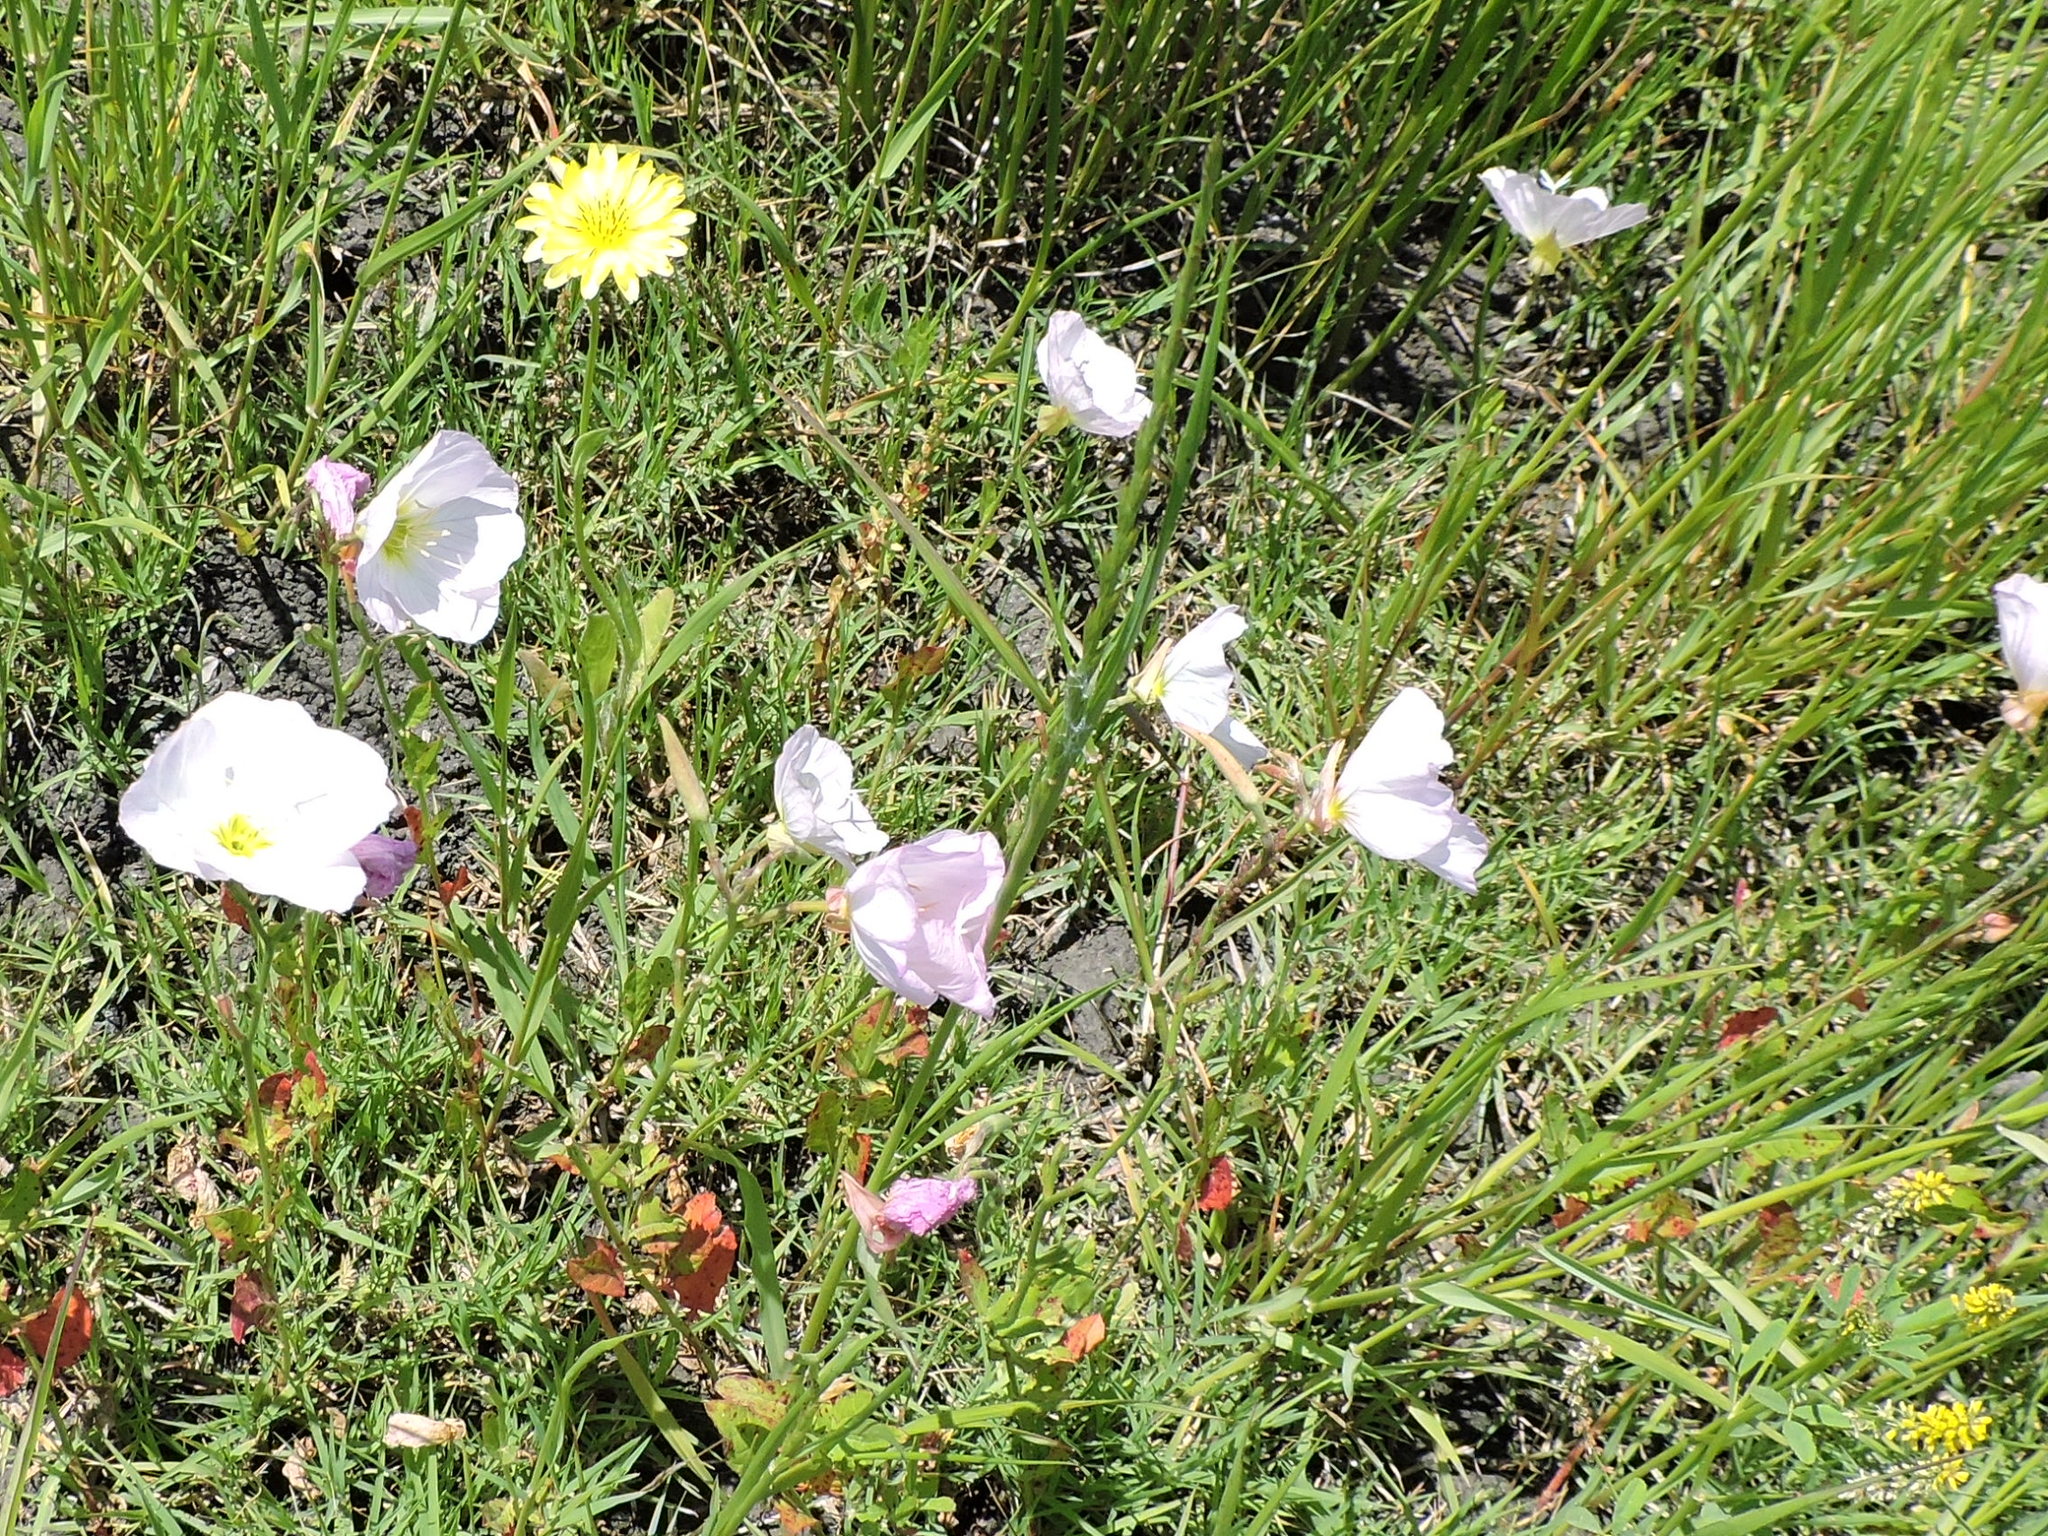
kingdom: Plantae
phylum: Tracheophyta
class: Magnoliopsida
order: Myrtales
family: Onagraceae
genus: Oenothera
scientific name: Oenothera speciosa
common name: White evening-primrose
